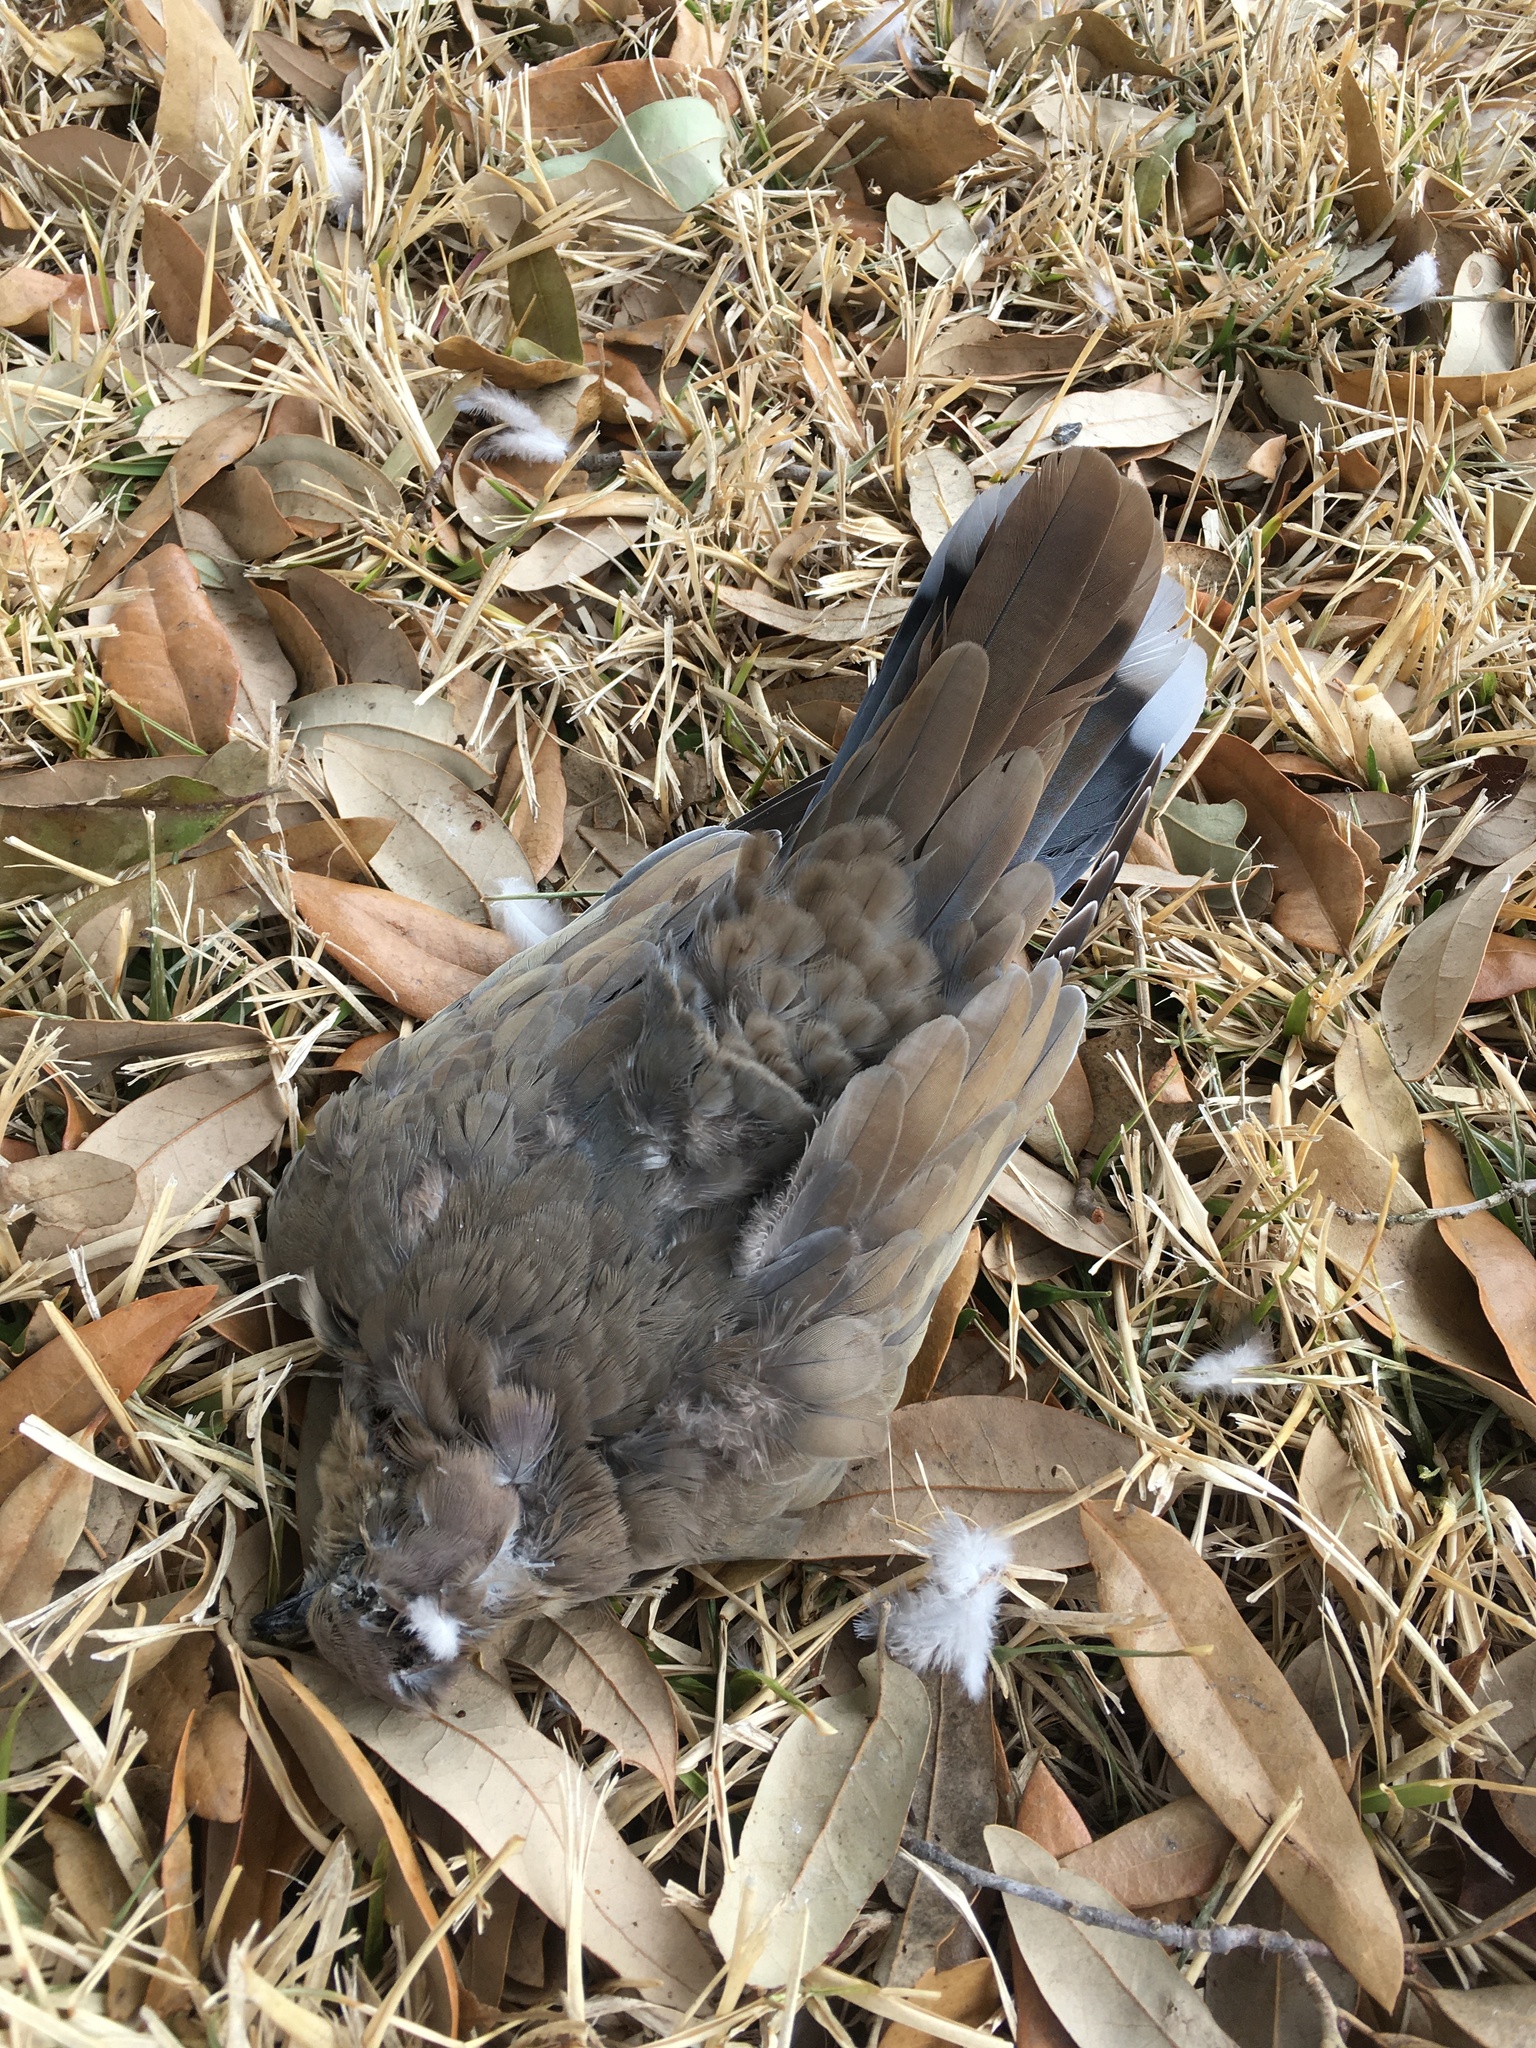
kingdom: Animalia
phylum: Chordata
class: Aves
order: Columbiformes
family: Columbidae
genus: Zenaida
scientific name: Zenaida asiatica
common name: White-winged dove
